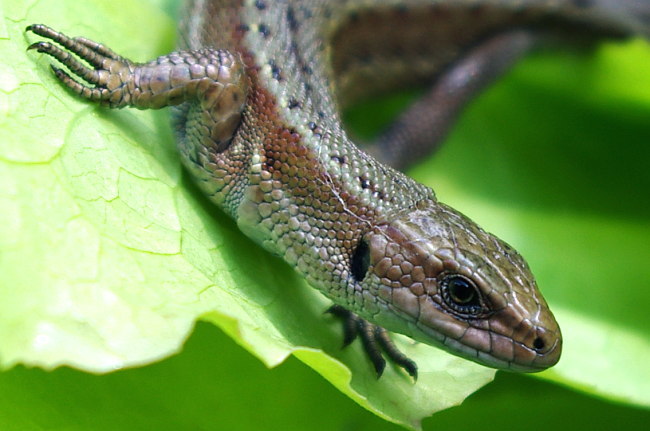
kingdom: Animalia
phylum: Chordata
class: Squamata
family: Lacertidae
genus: Zootoca
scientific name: Zootoca vivipara
